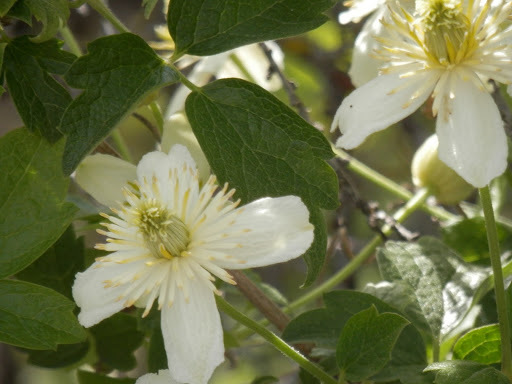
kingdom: Plantae
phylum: Tracheophyta
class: Magnoliopsida
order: Ranunculales
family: Ranunculaceae
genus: Clematis
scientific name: Clematis lasiantha
